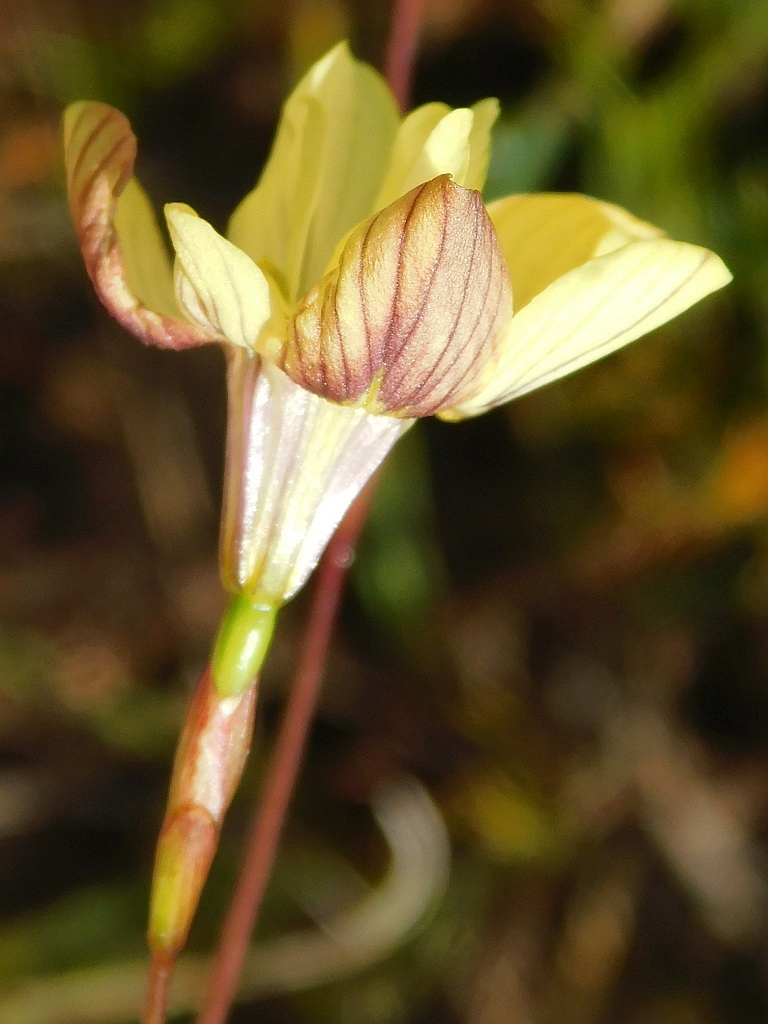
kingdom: Plantae
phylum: Tracheophyta
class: Liliopsida
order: Asparagales
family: Iridaceae
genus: Moraea
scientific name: Moraea gawleri
